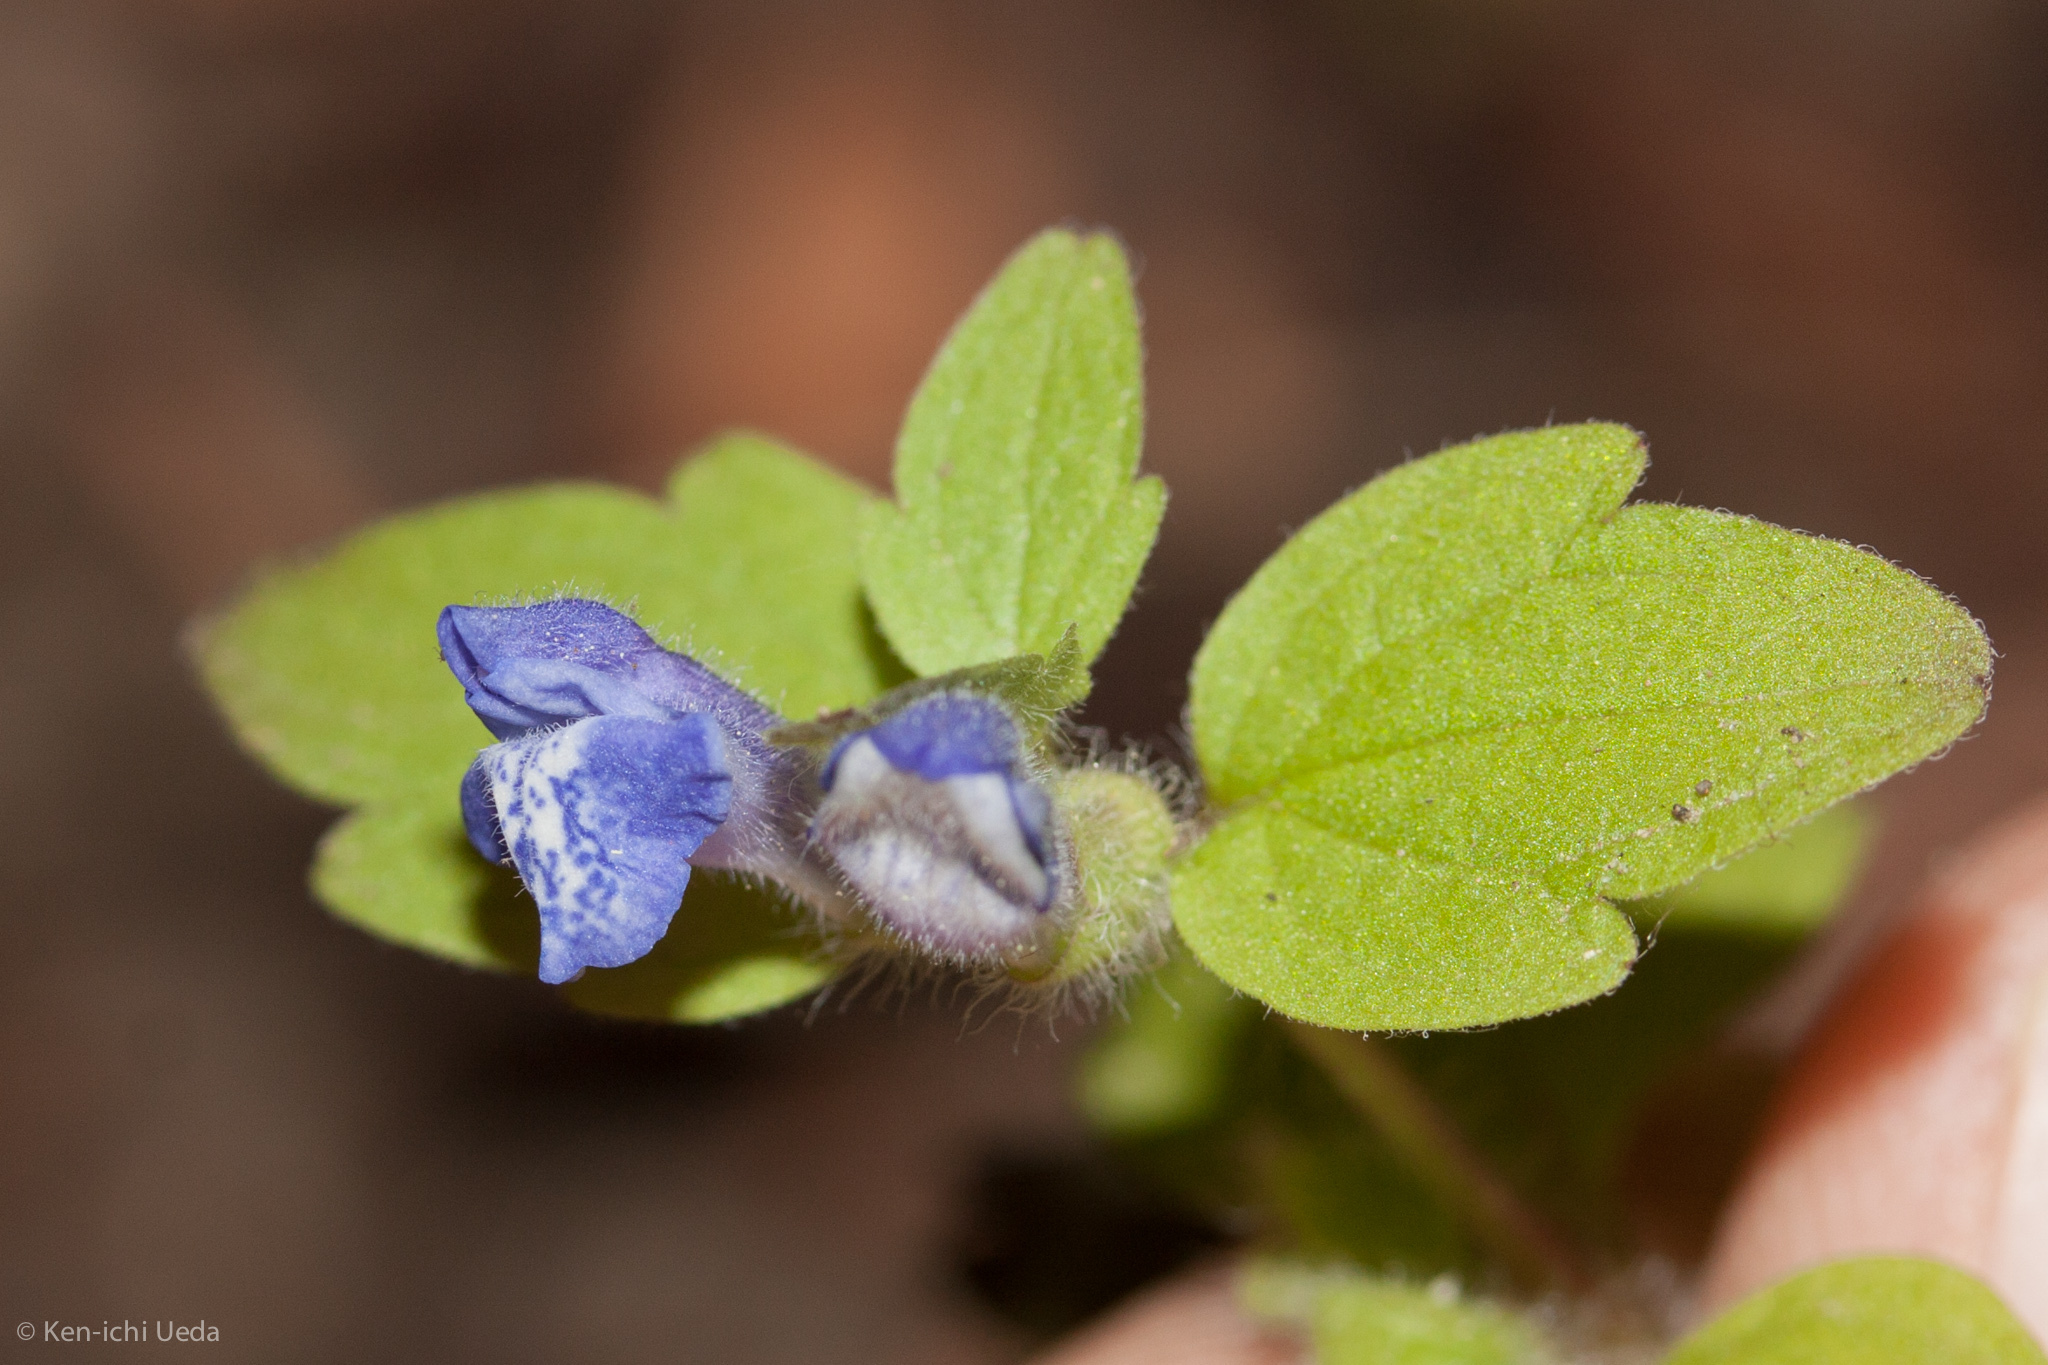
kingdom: Plantae
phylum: Tracheophyta
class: Magnoliopsida
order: Lamiales
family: Lamiaceae
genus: Scutellaria
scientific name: Scutellaria tuberosa
